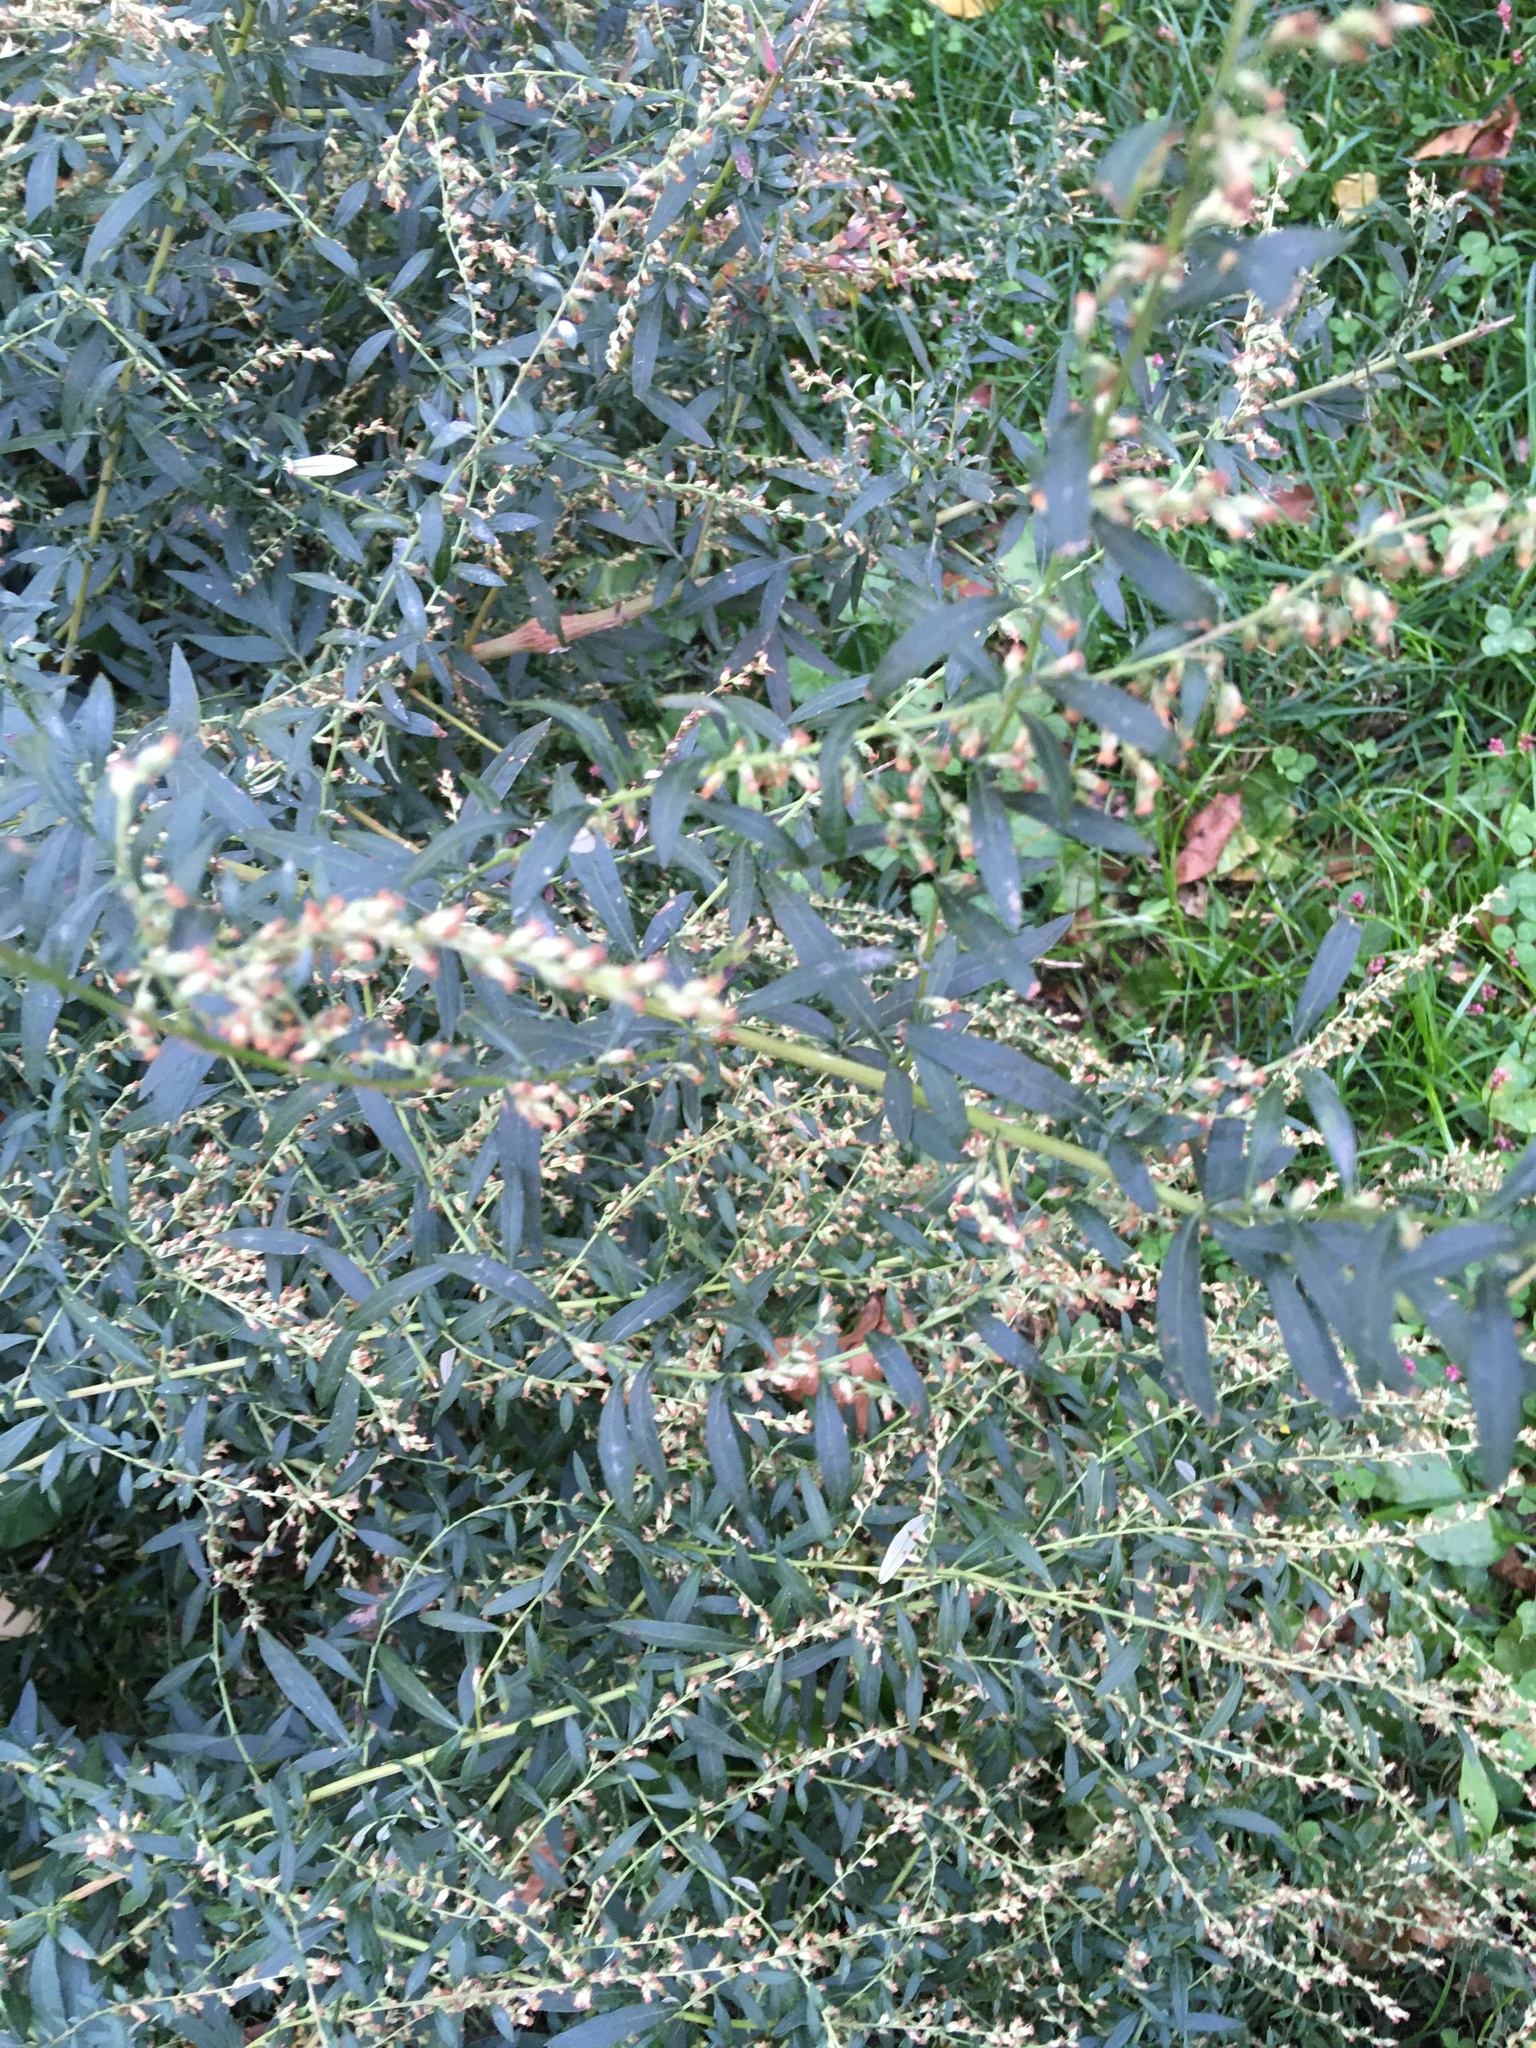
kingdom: Plantae
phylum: Tracheophyta
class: Magnoliopsida
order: Asterales
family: Asteraceae
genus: Artemisia
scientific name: Artemisia vulgaris
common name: Mugwort
